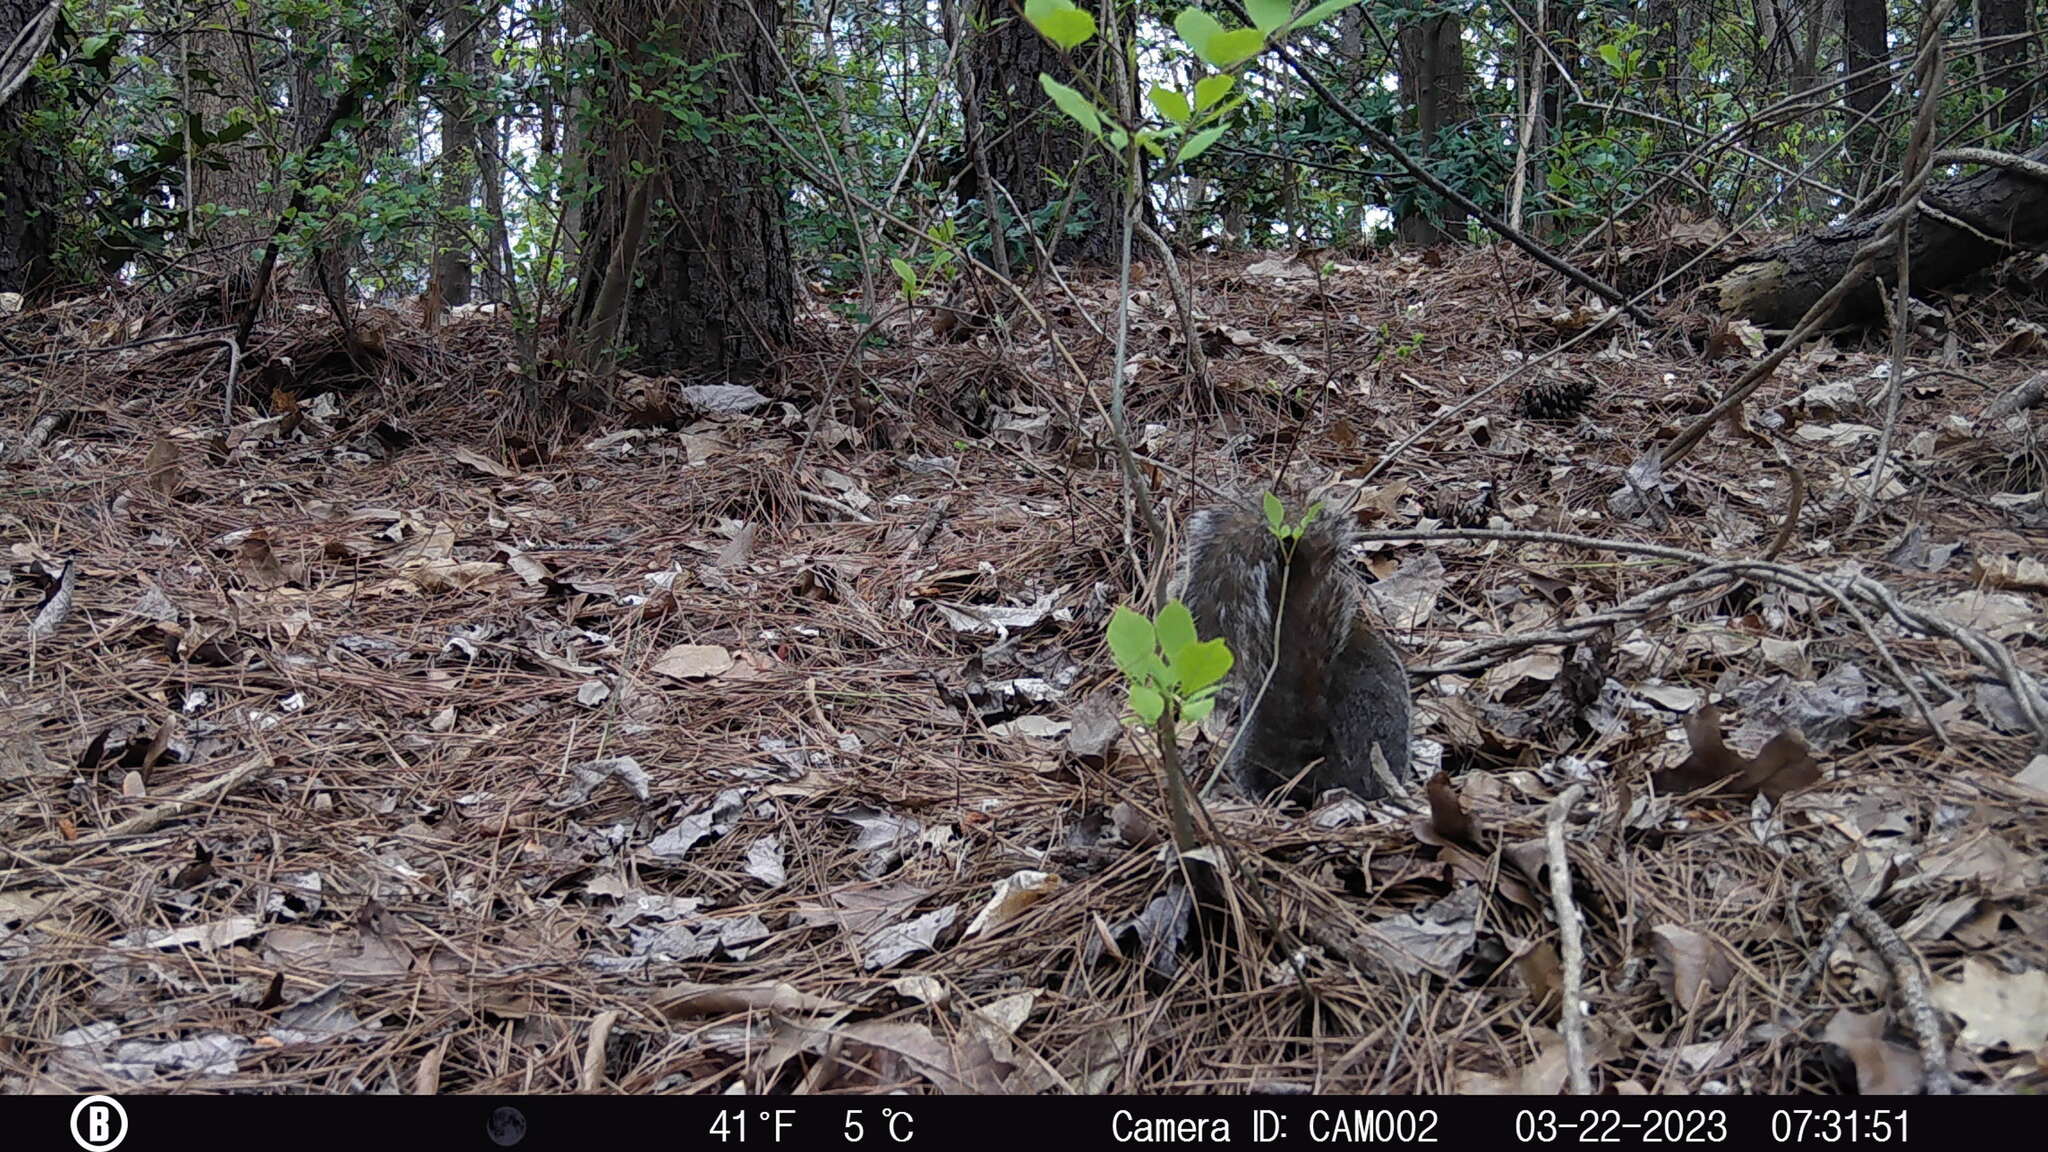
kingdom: Animalia
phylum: Chordata
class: Mammalia
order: Rodentia
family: Sciuridae
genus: Sciurus
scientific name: Sciurus carolinensis
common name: Eastern gray squirrel
